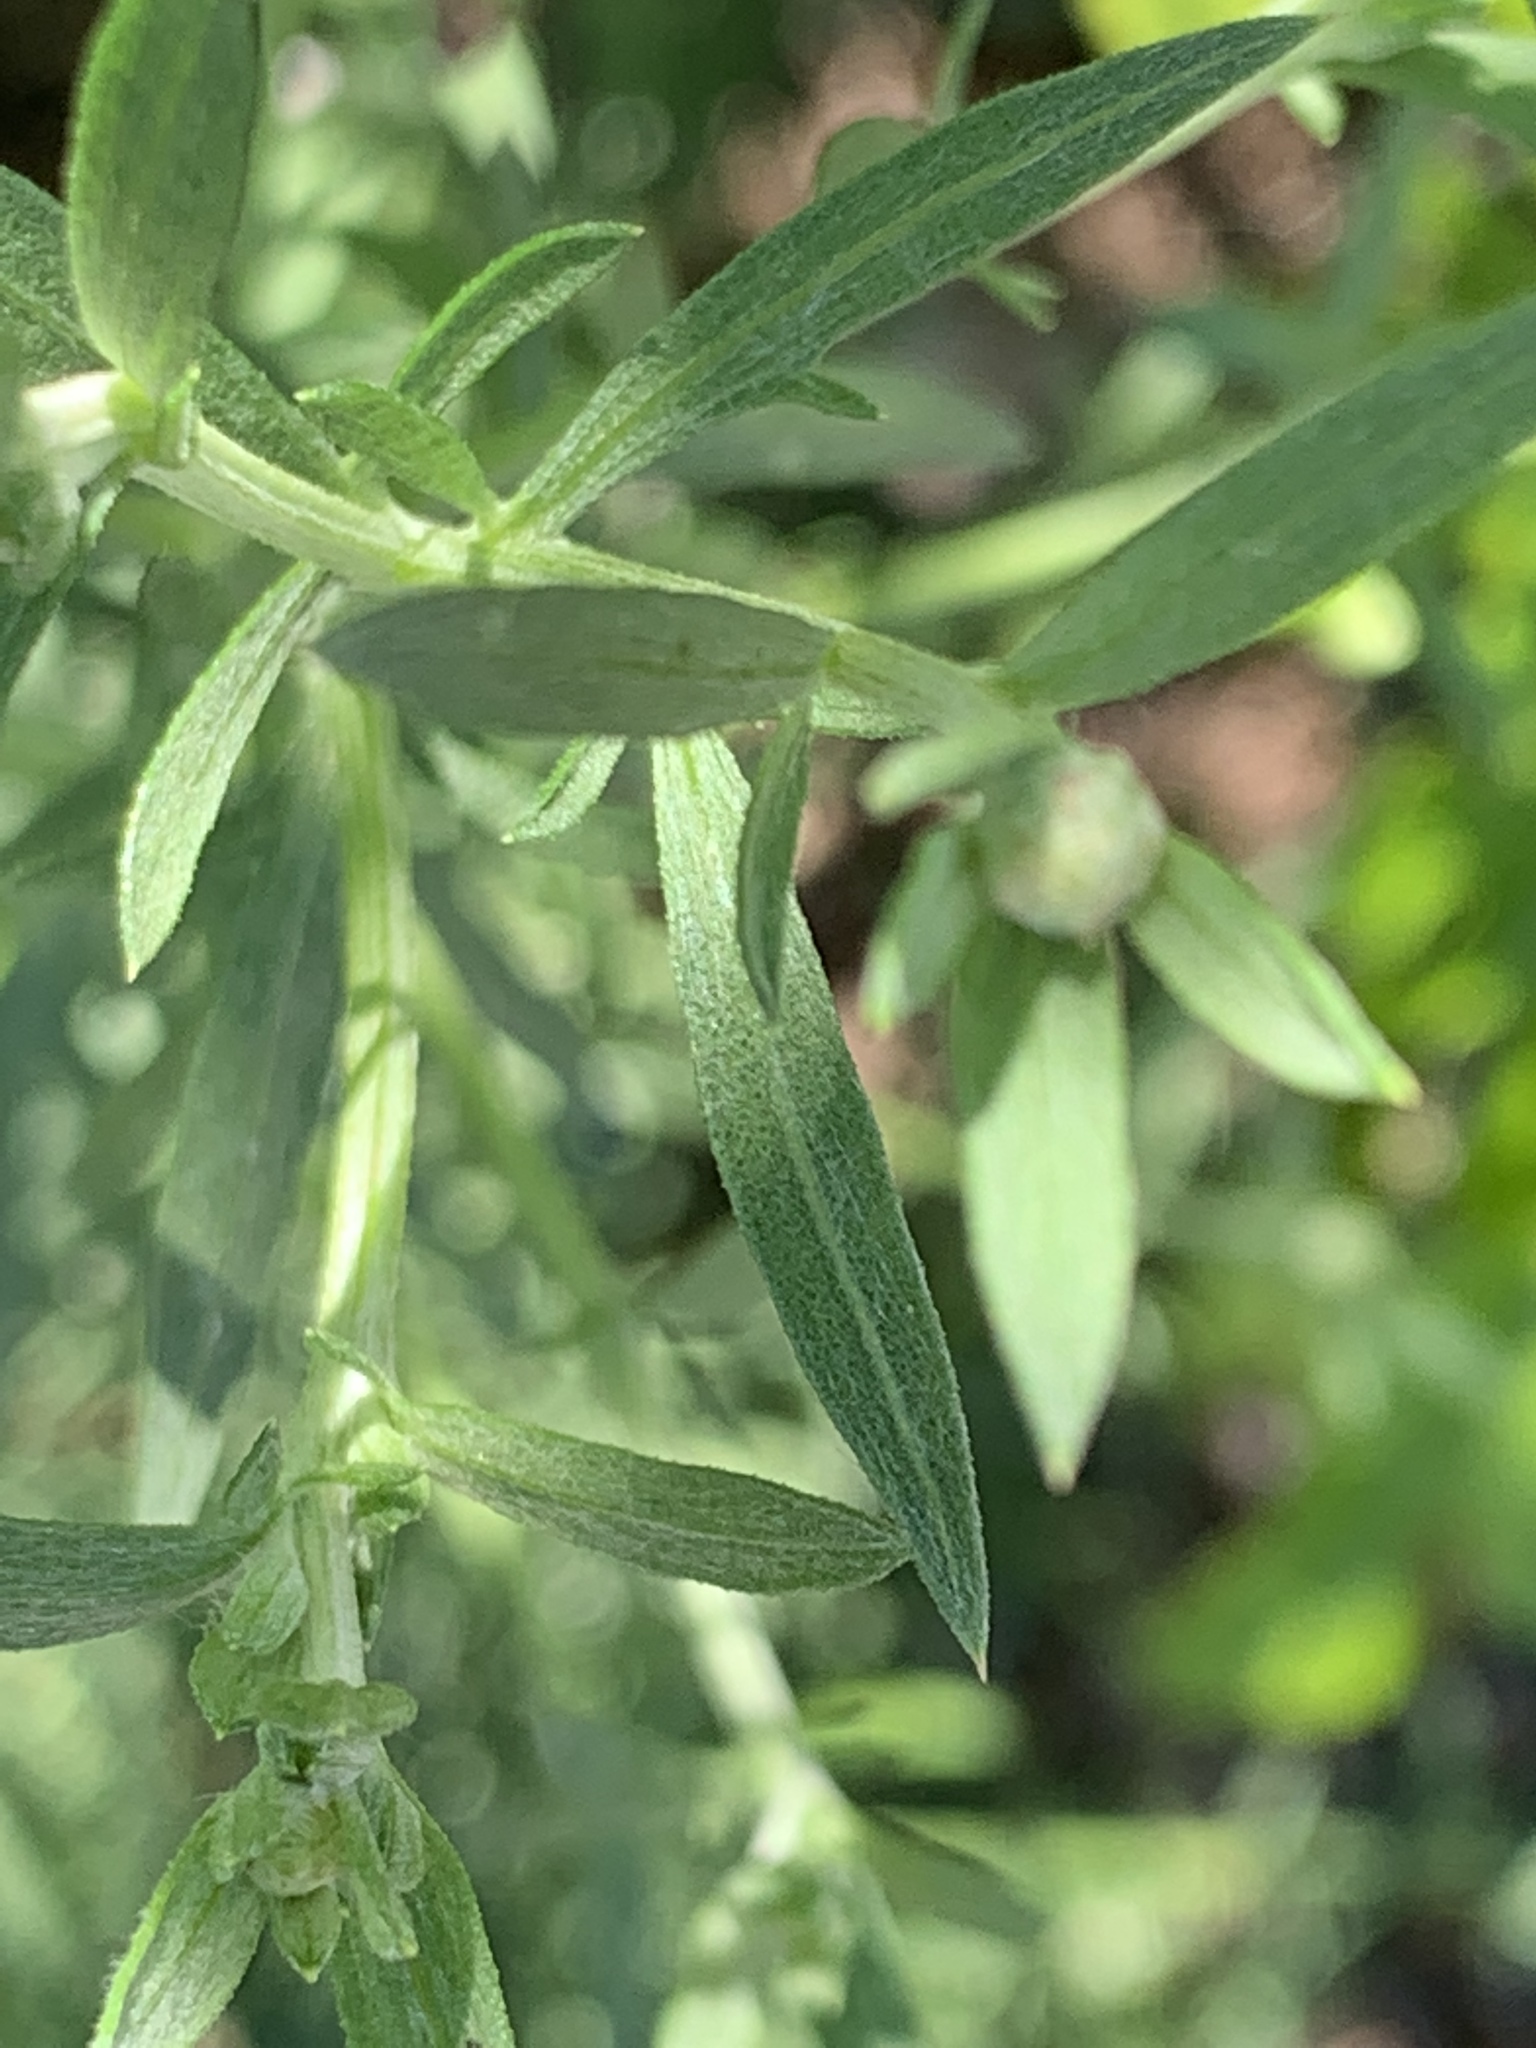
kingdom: Plantae
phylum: Tracheophyta
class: Magnoliopsida
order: Asterales
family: Asteraceae
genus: Centaurea
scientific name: Centaurea stoebe
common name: Spotted knapweed
